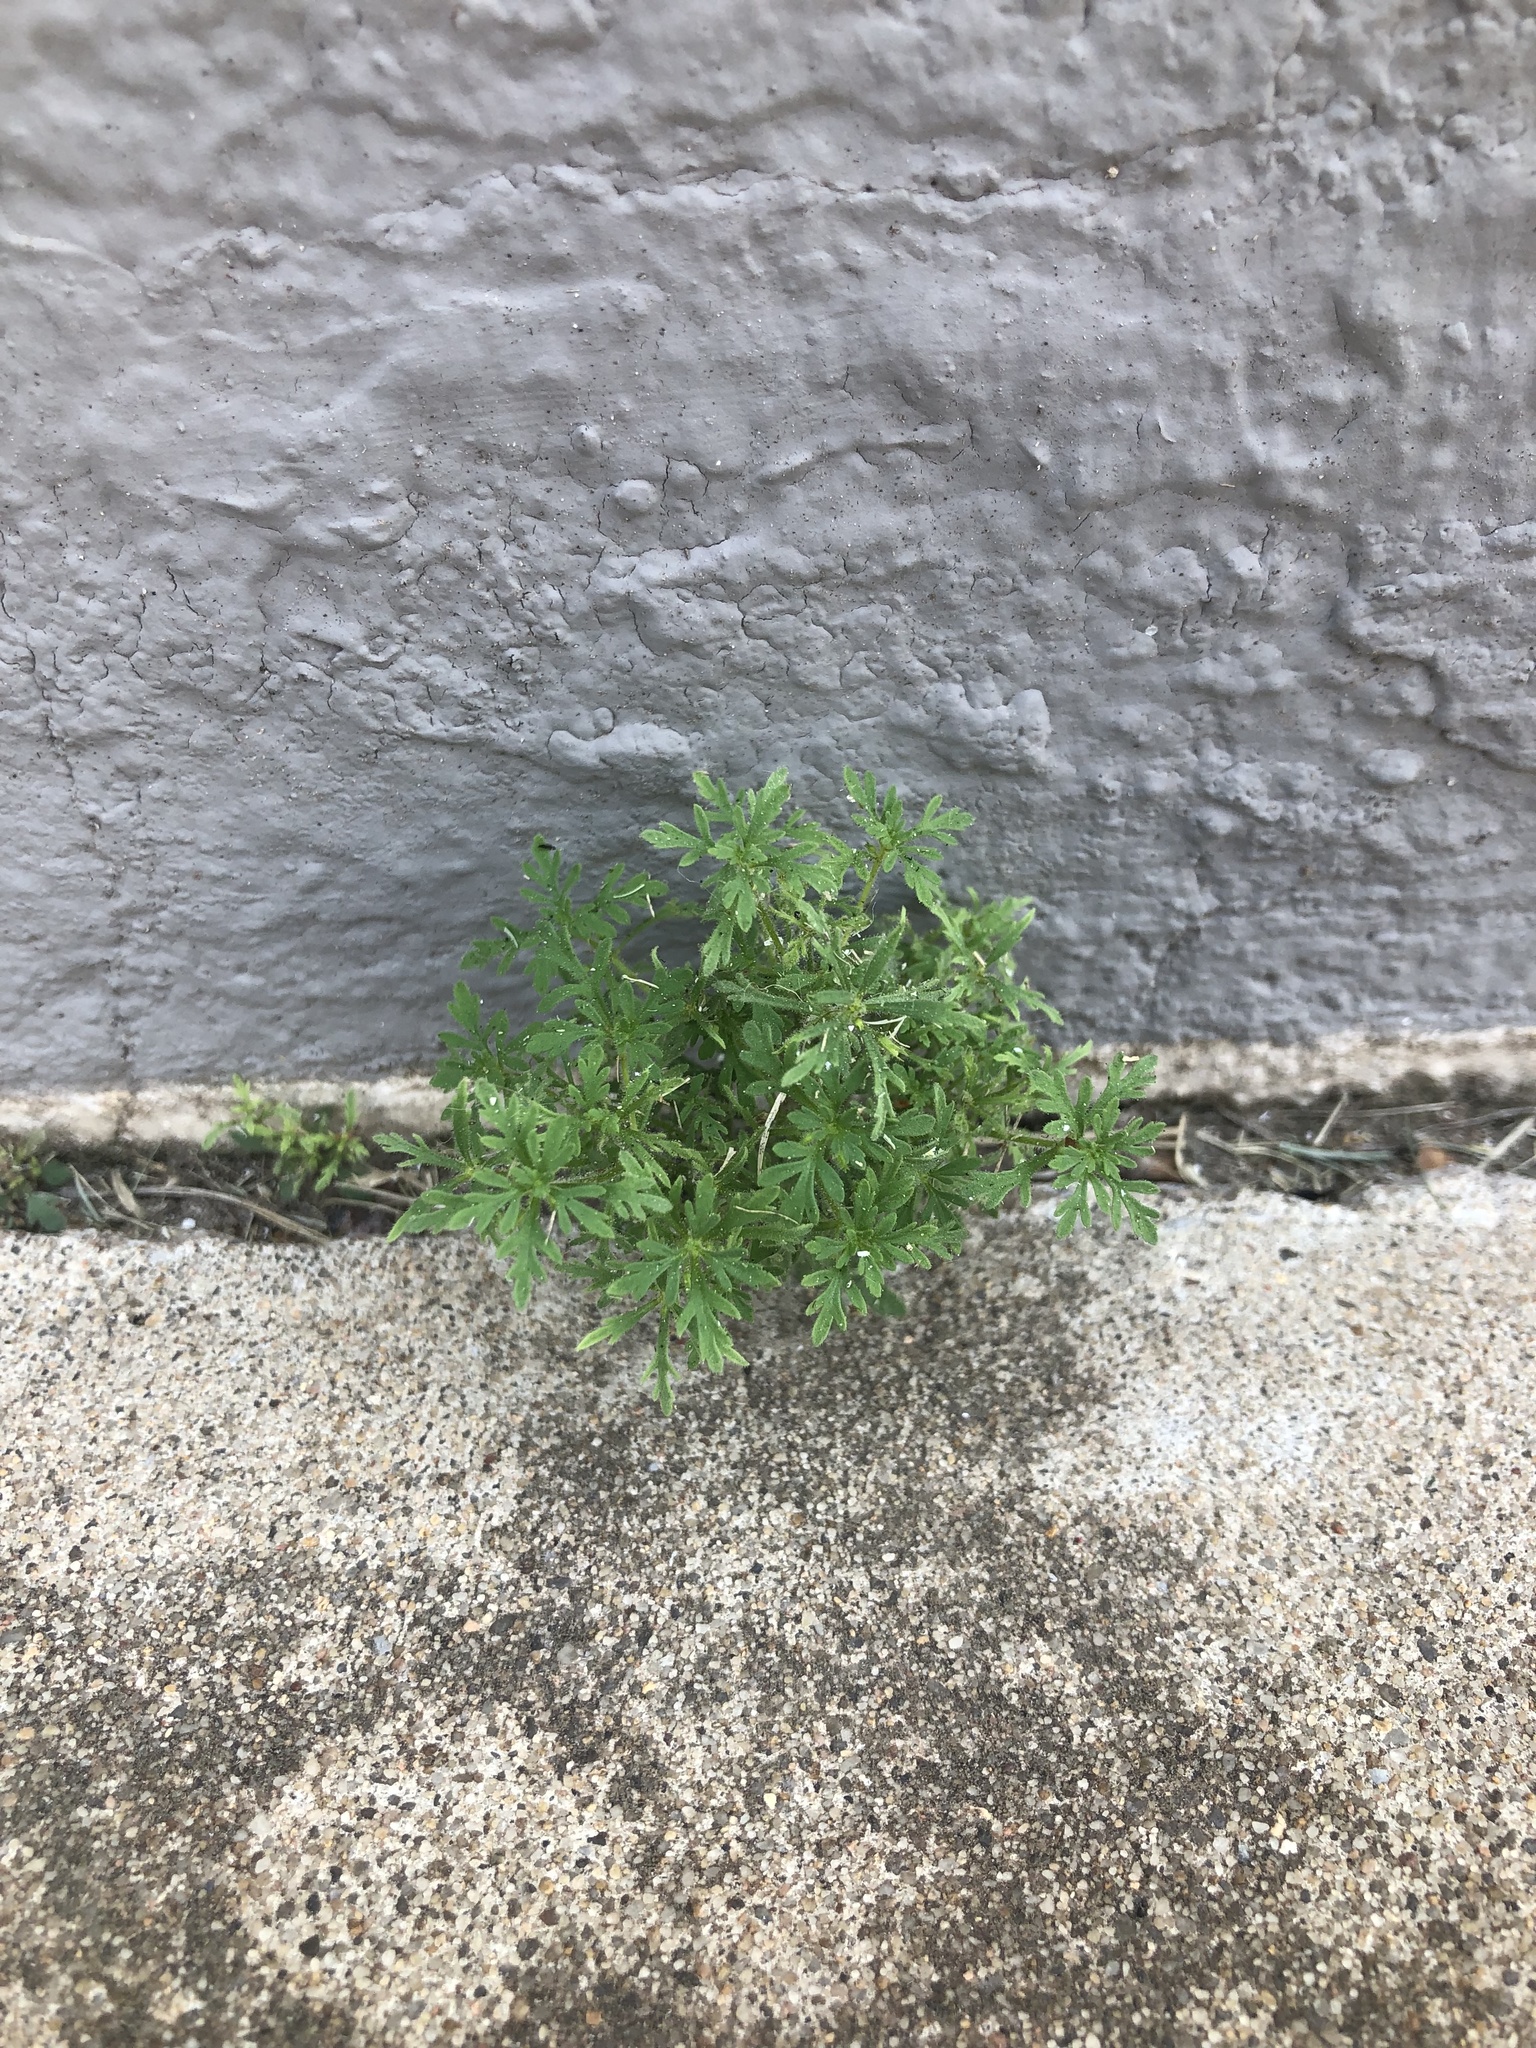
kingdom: Plantae
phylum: Tracheophyta
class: Magnoliopsida
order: Lamiales
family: Plantaginaceae
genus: Leucospora
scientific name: Leucospora multifida
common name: Narrow-leaf paleseed
